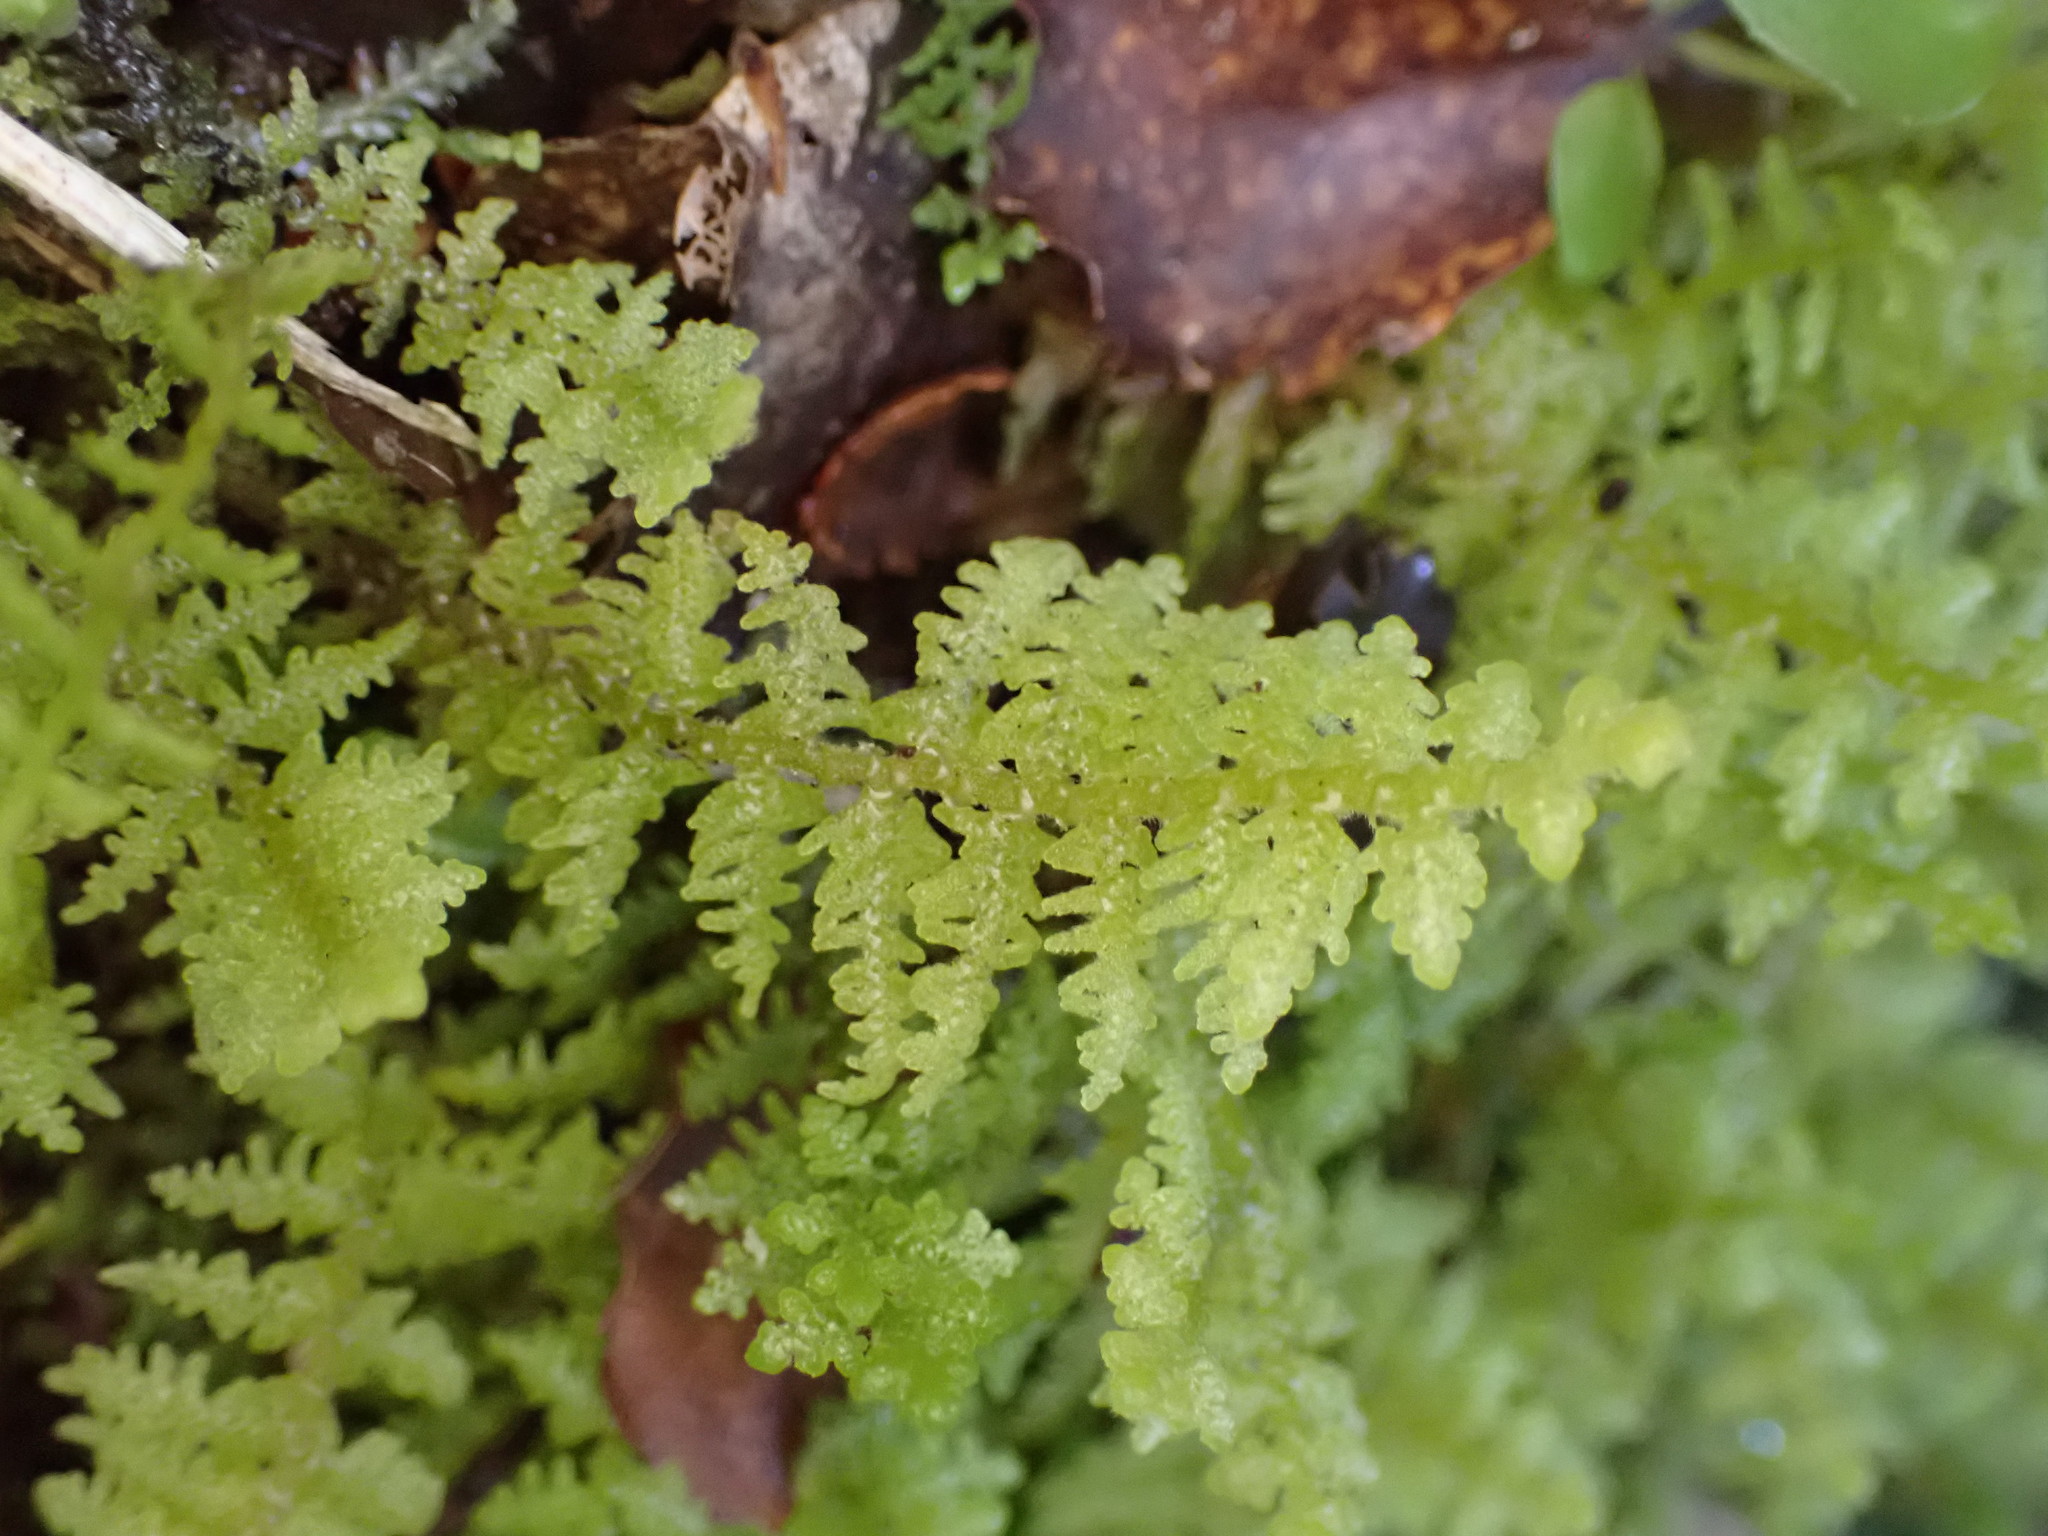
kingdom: Plantae
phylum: Marchantiophyta
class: Jungermanniopsida
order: Porellales
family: Lepidolaenaceae
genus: Lepidogyna
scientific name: Lepidogyna hodgsoniae
